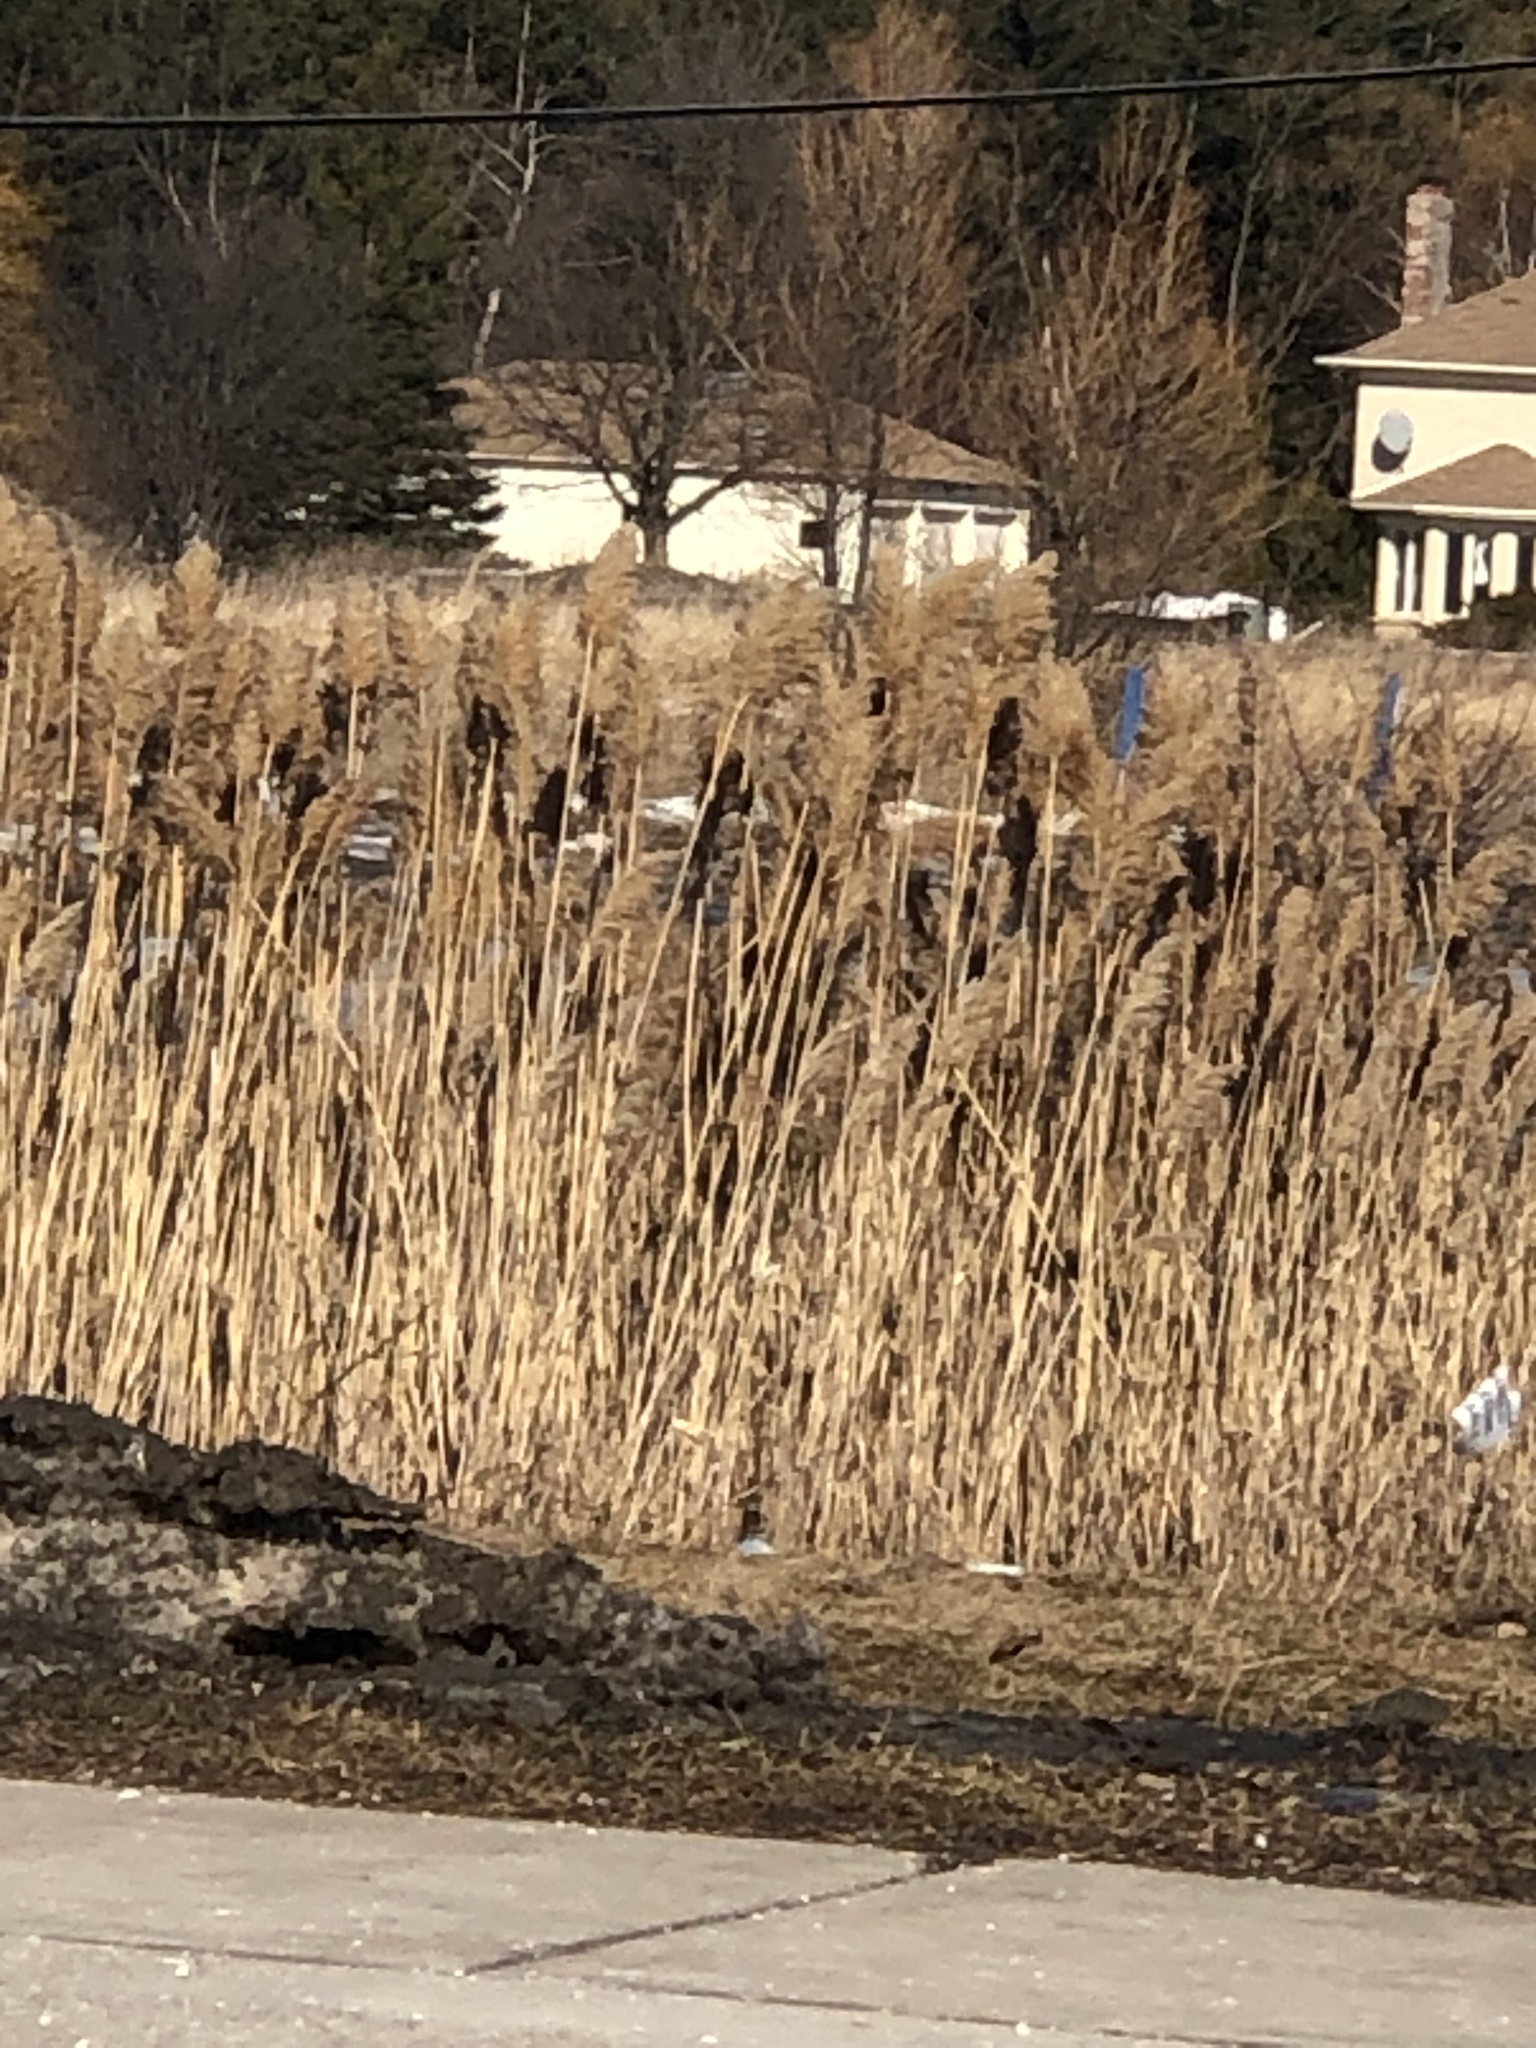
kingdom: Plantae
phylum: Tracheophyta
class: Liliopsida
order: Poales
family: Poaceae
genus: Phragmites
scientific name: Phragmites australis
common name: Common reed
